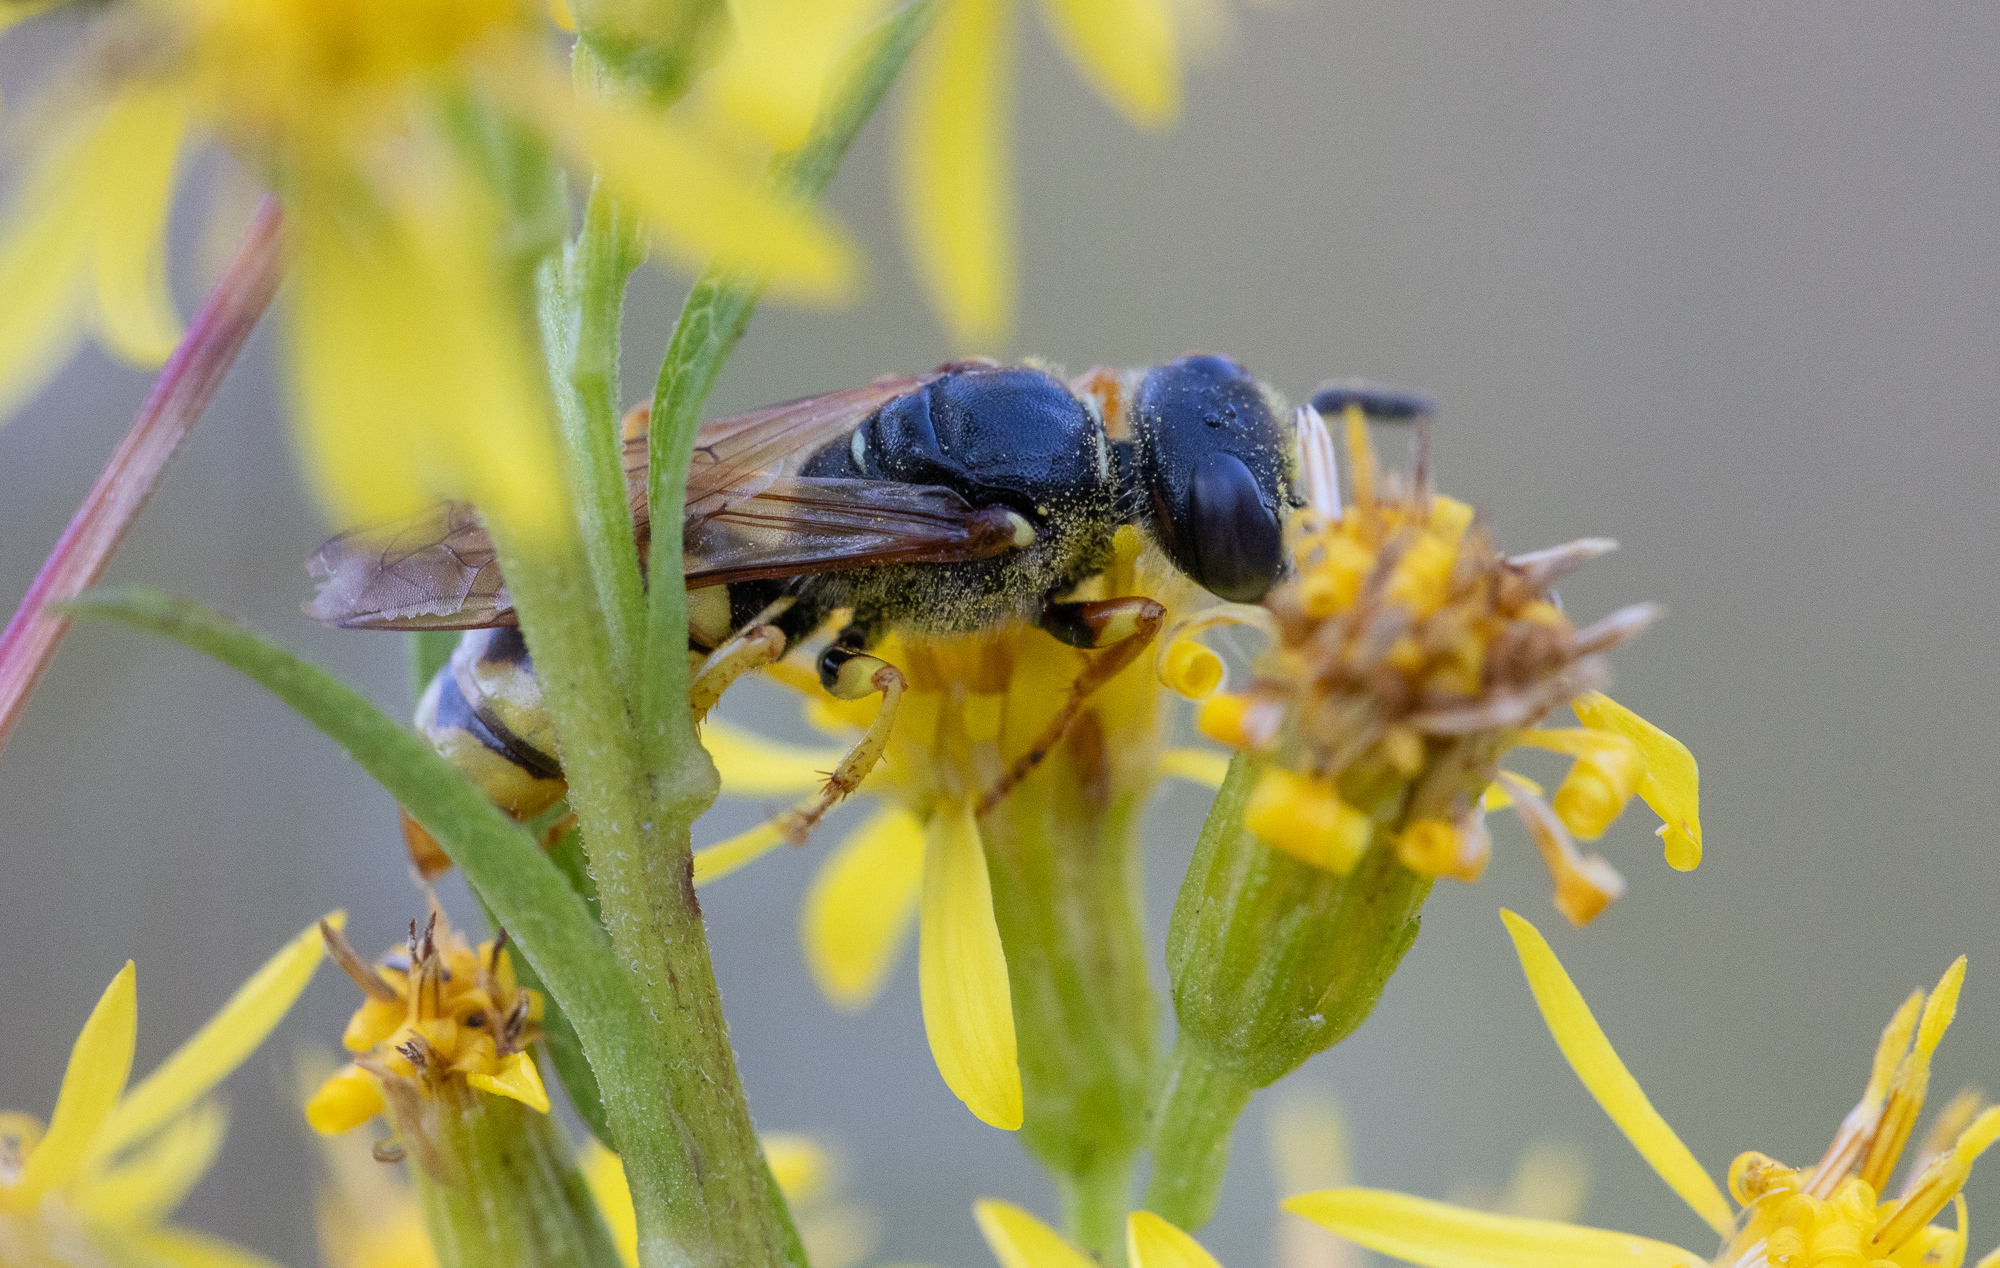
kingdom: Animalia
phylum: Arthropoda
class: Insecta
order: Hymenoptera
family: Crabronidae
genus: Philanthus
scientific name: Philanthus triangulum
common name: Bee wolf
